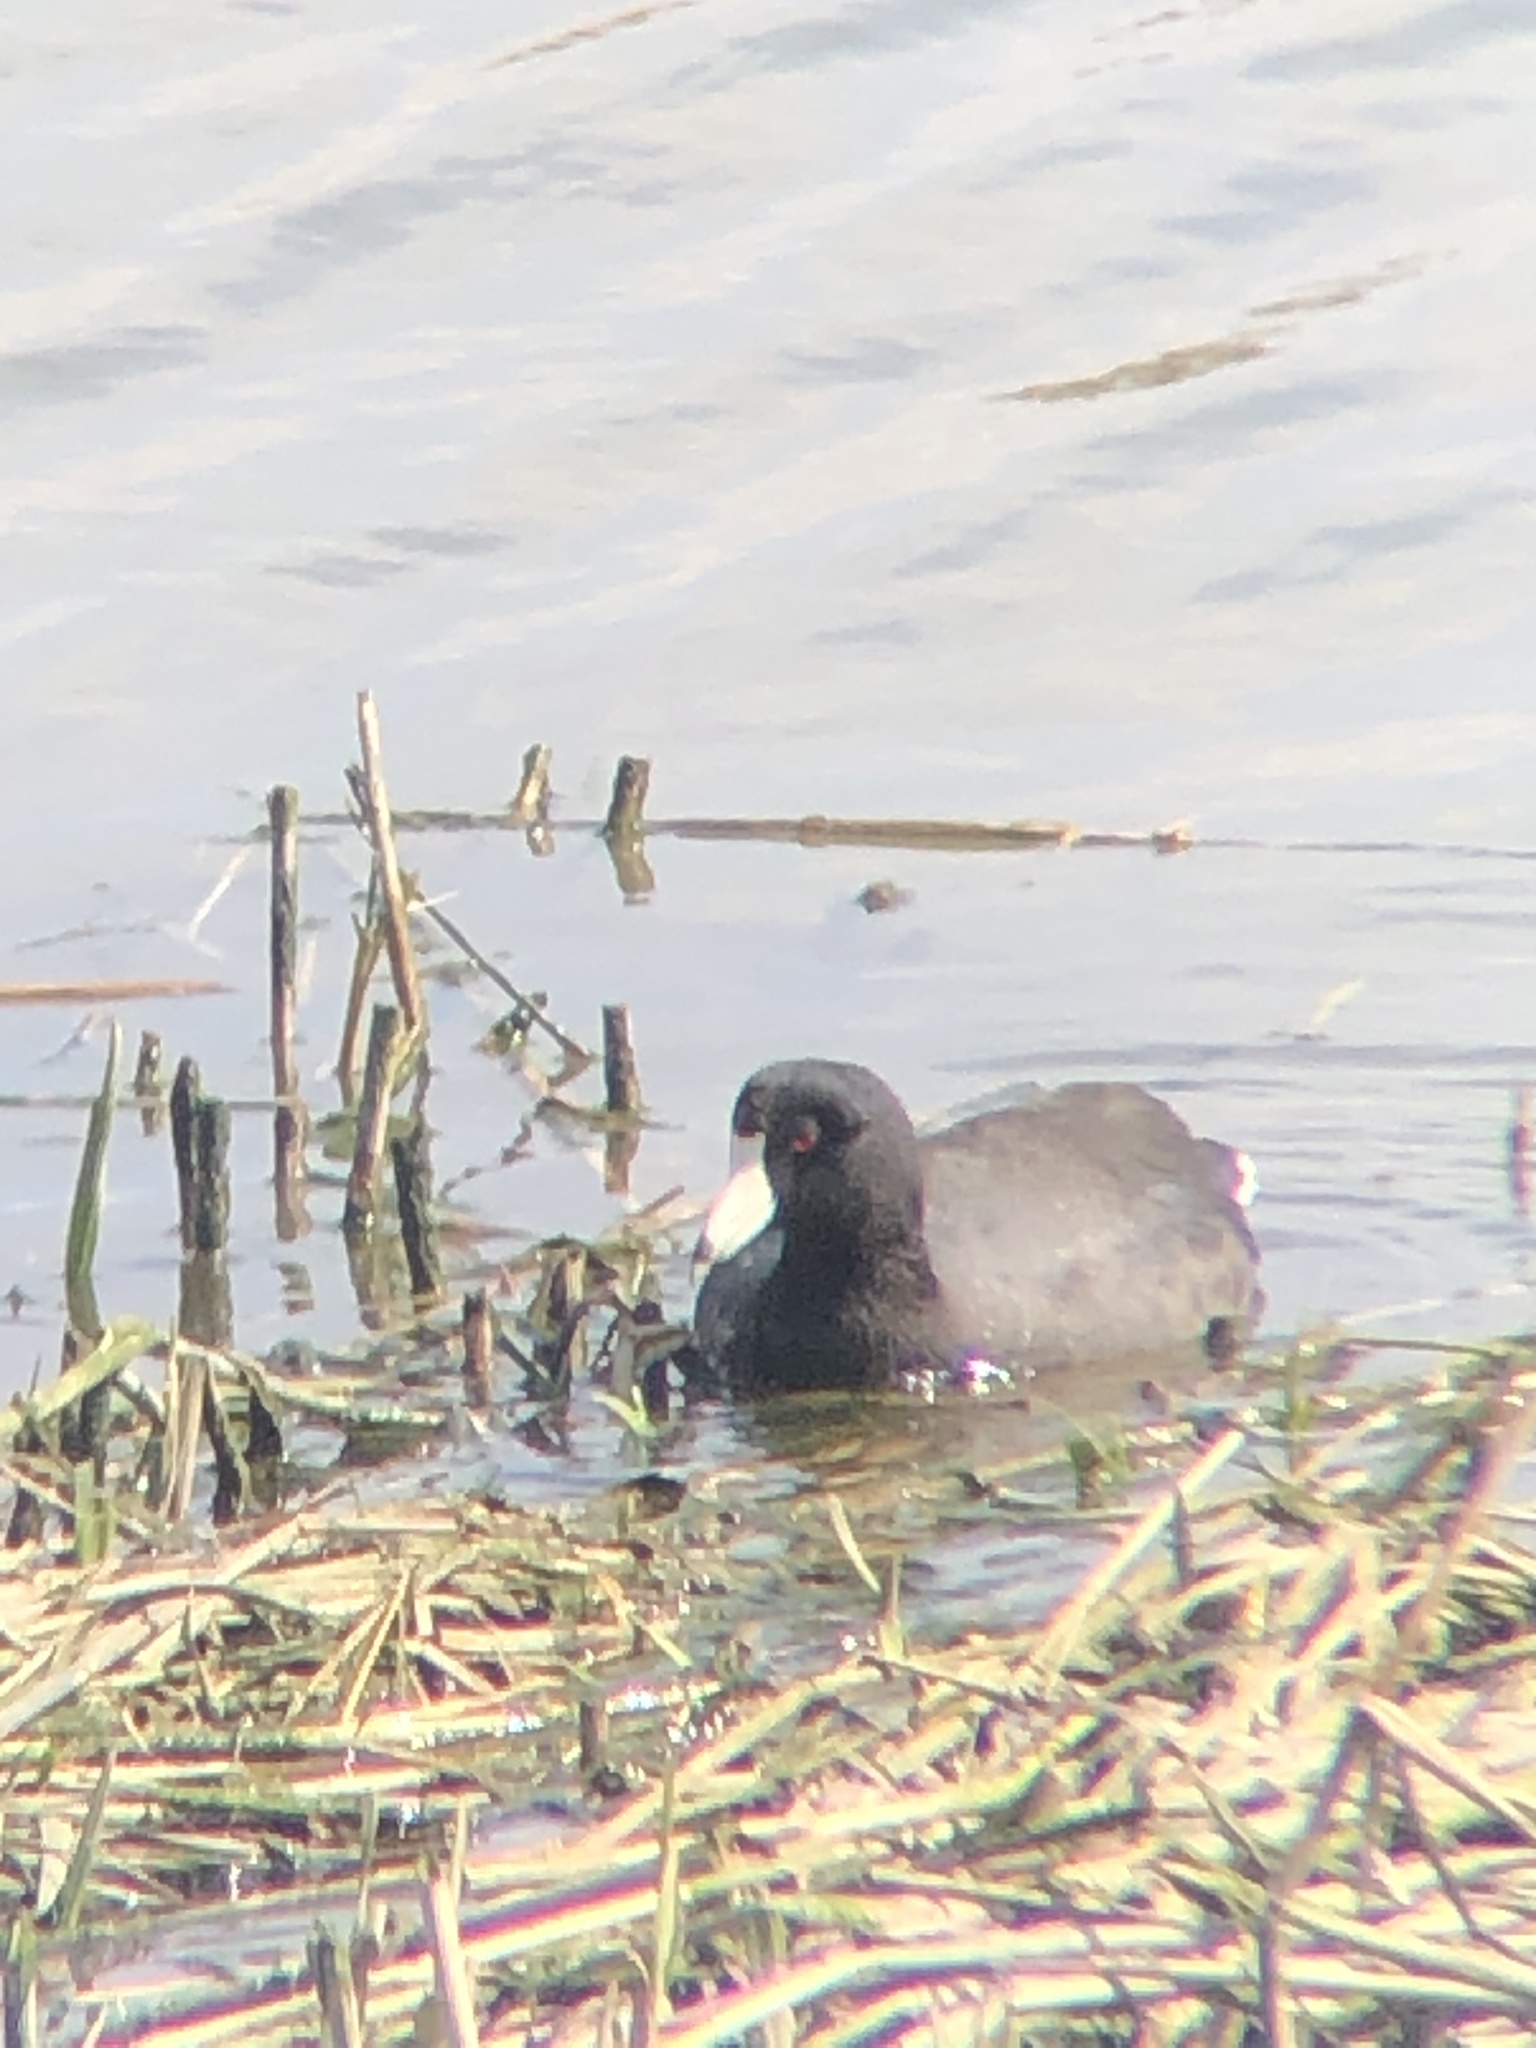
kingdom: Animalia
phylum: Chordata
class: Aves
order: Gruiformes
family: Rallidae
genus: Fulica
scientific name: Fulica americana
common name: American coot
